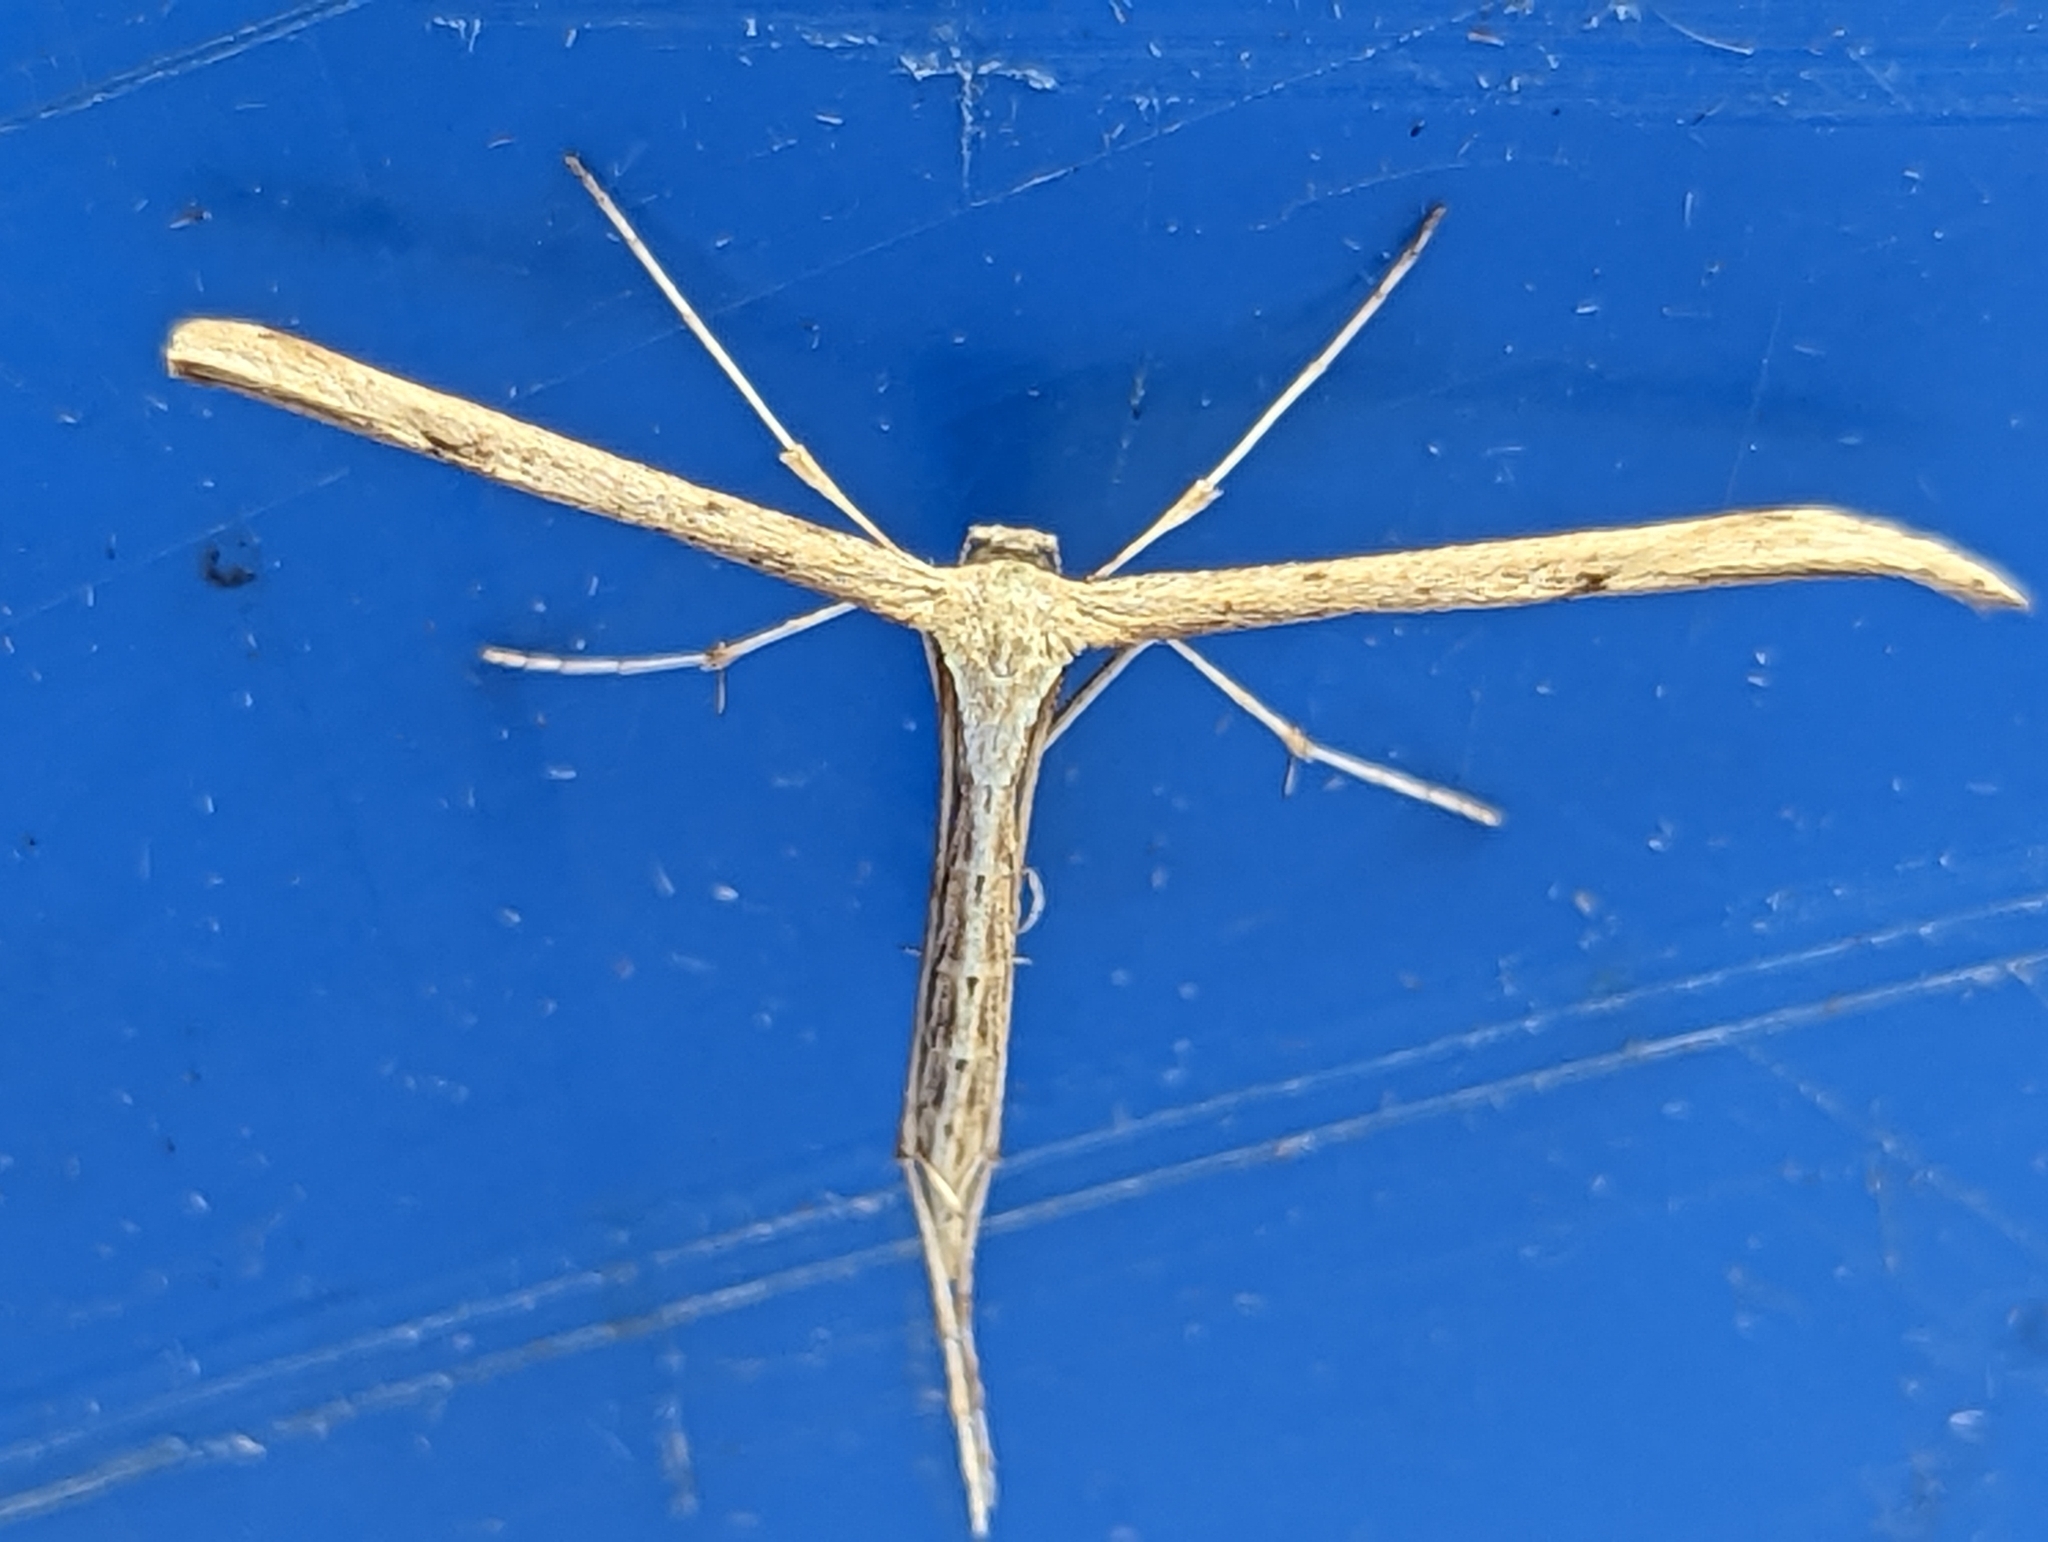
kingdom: Animalia
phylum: Arthropoda
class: Insecta
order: Lepidoptera
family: Pterophoridae
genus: Emmelina
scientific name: Emmelina monodactyla
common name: Common plume
